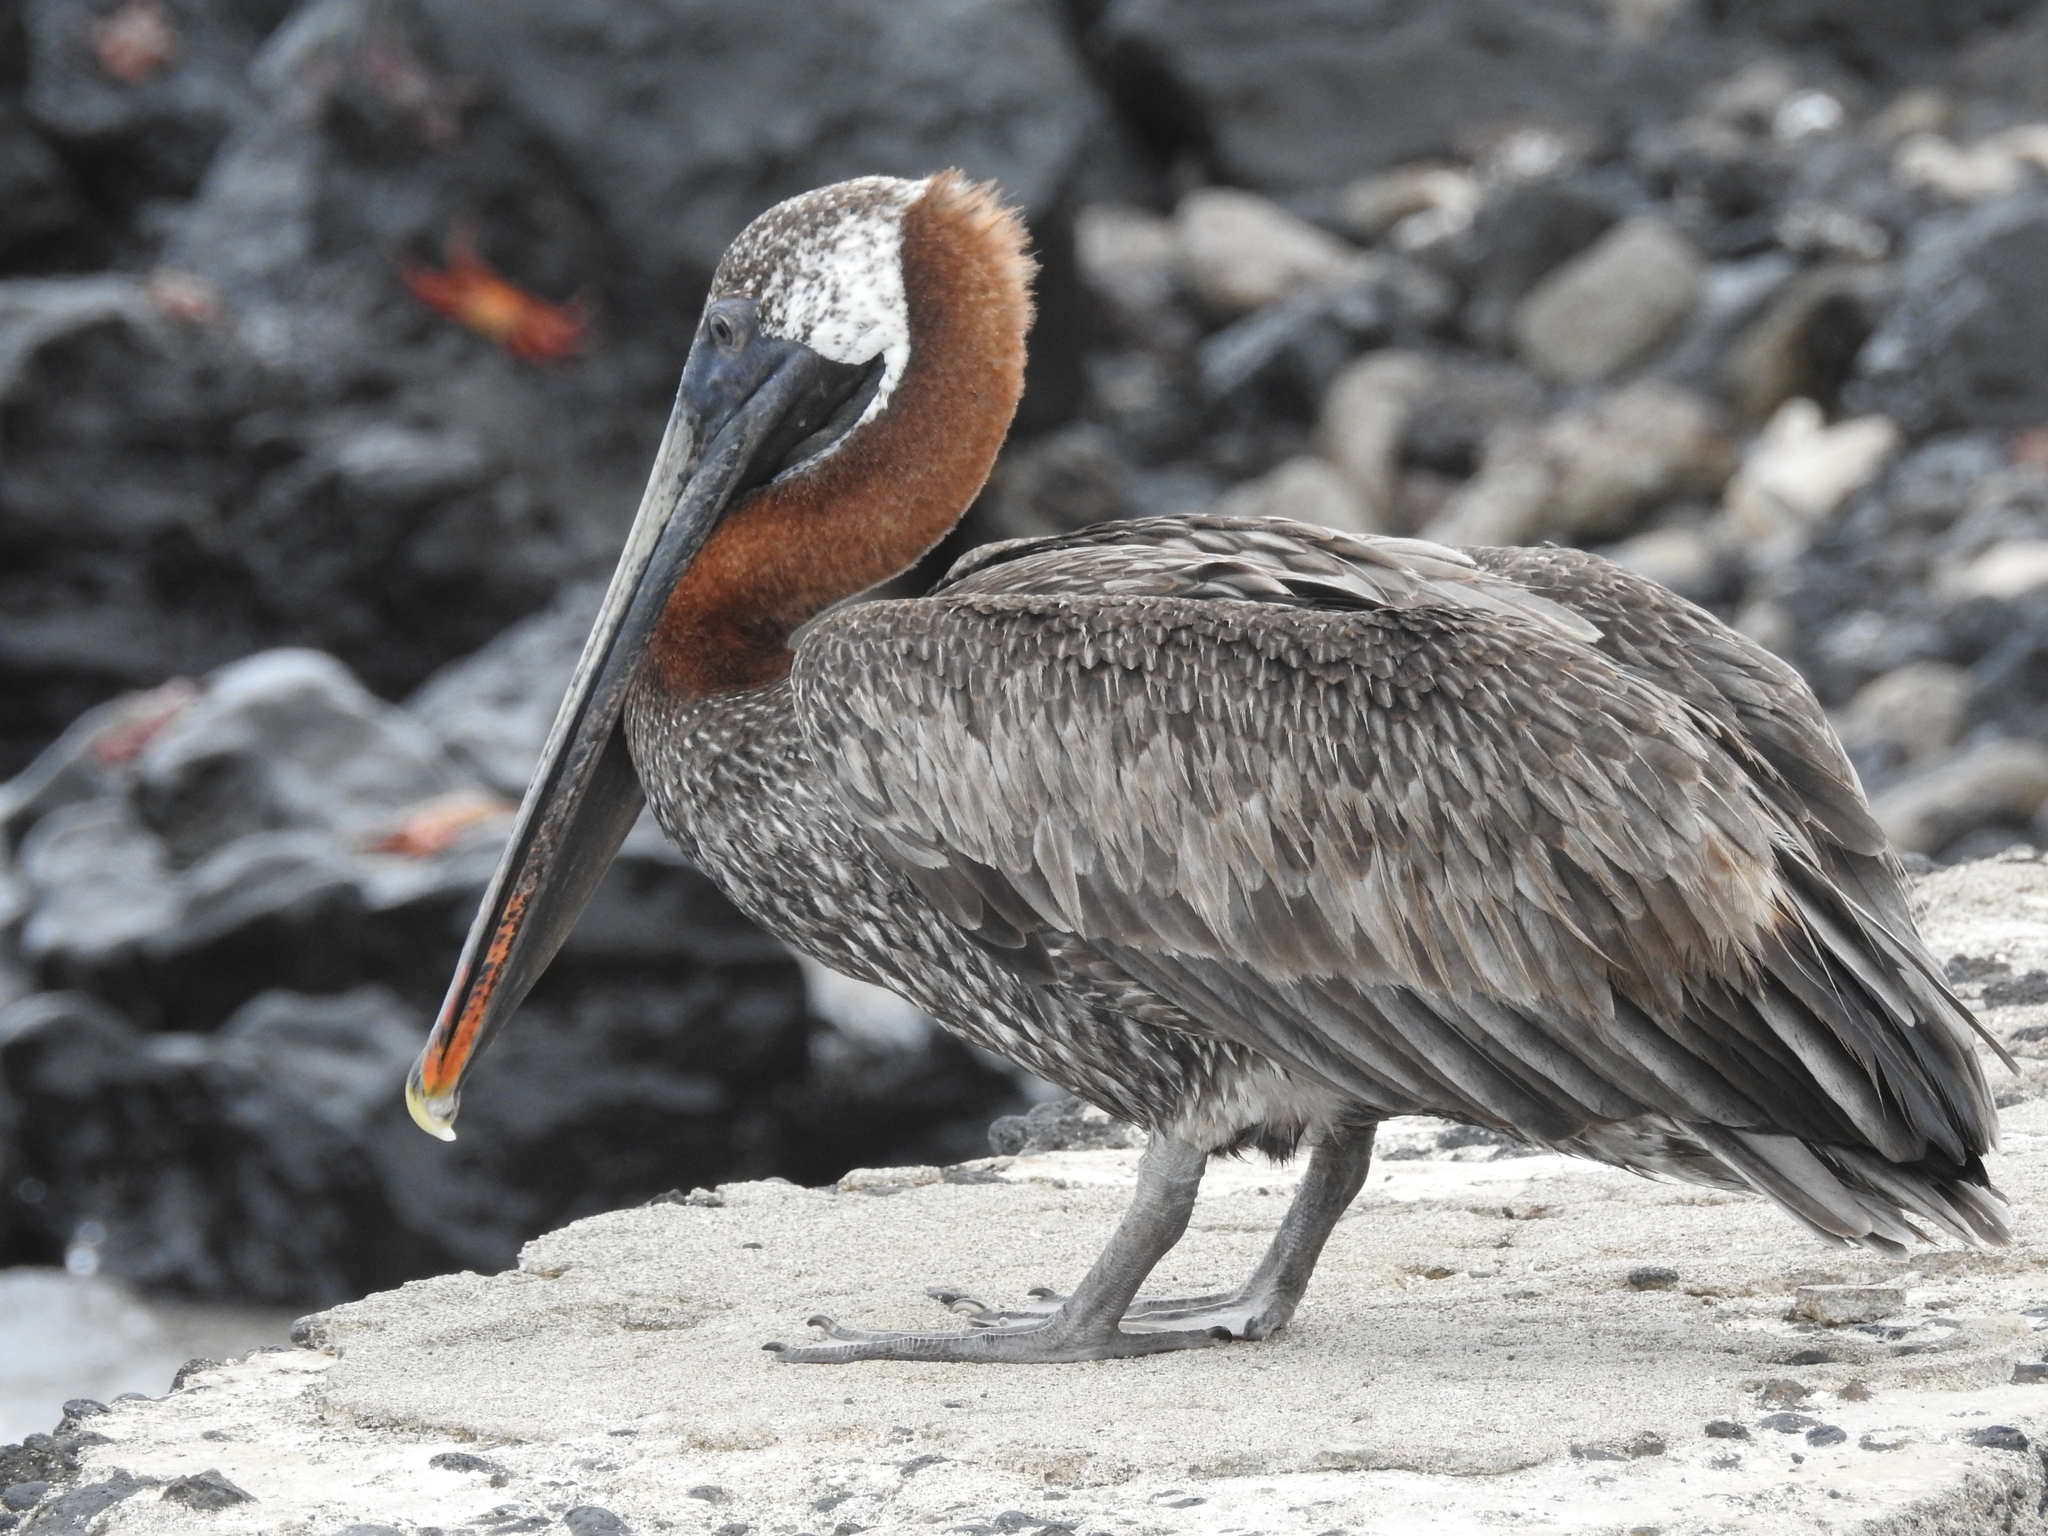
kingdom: Animalia
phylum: Chordata
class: Aves
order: Pelecaniformes
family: Pelecanidae
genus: Pelecanus
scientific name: Pelecanus occidentalis
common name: Brown pelican
